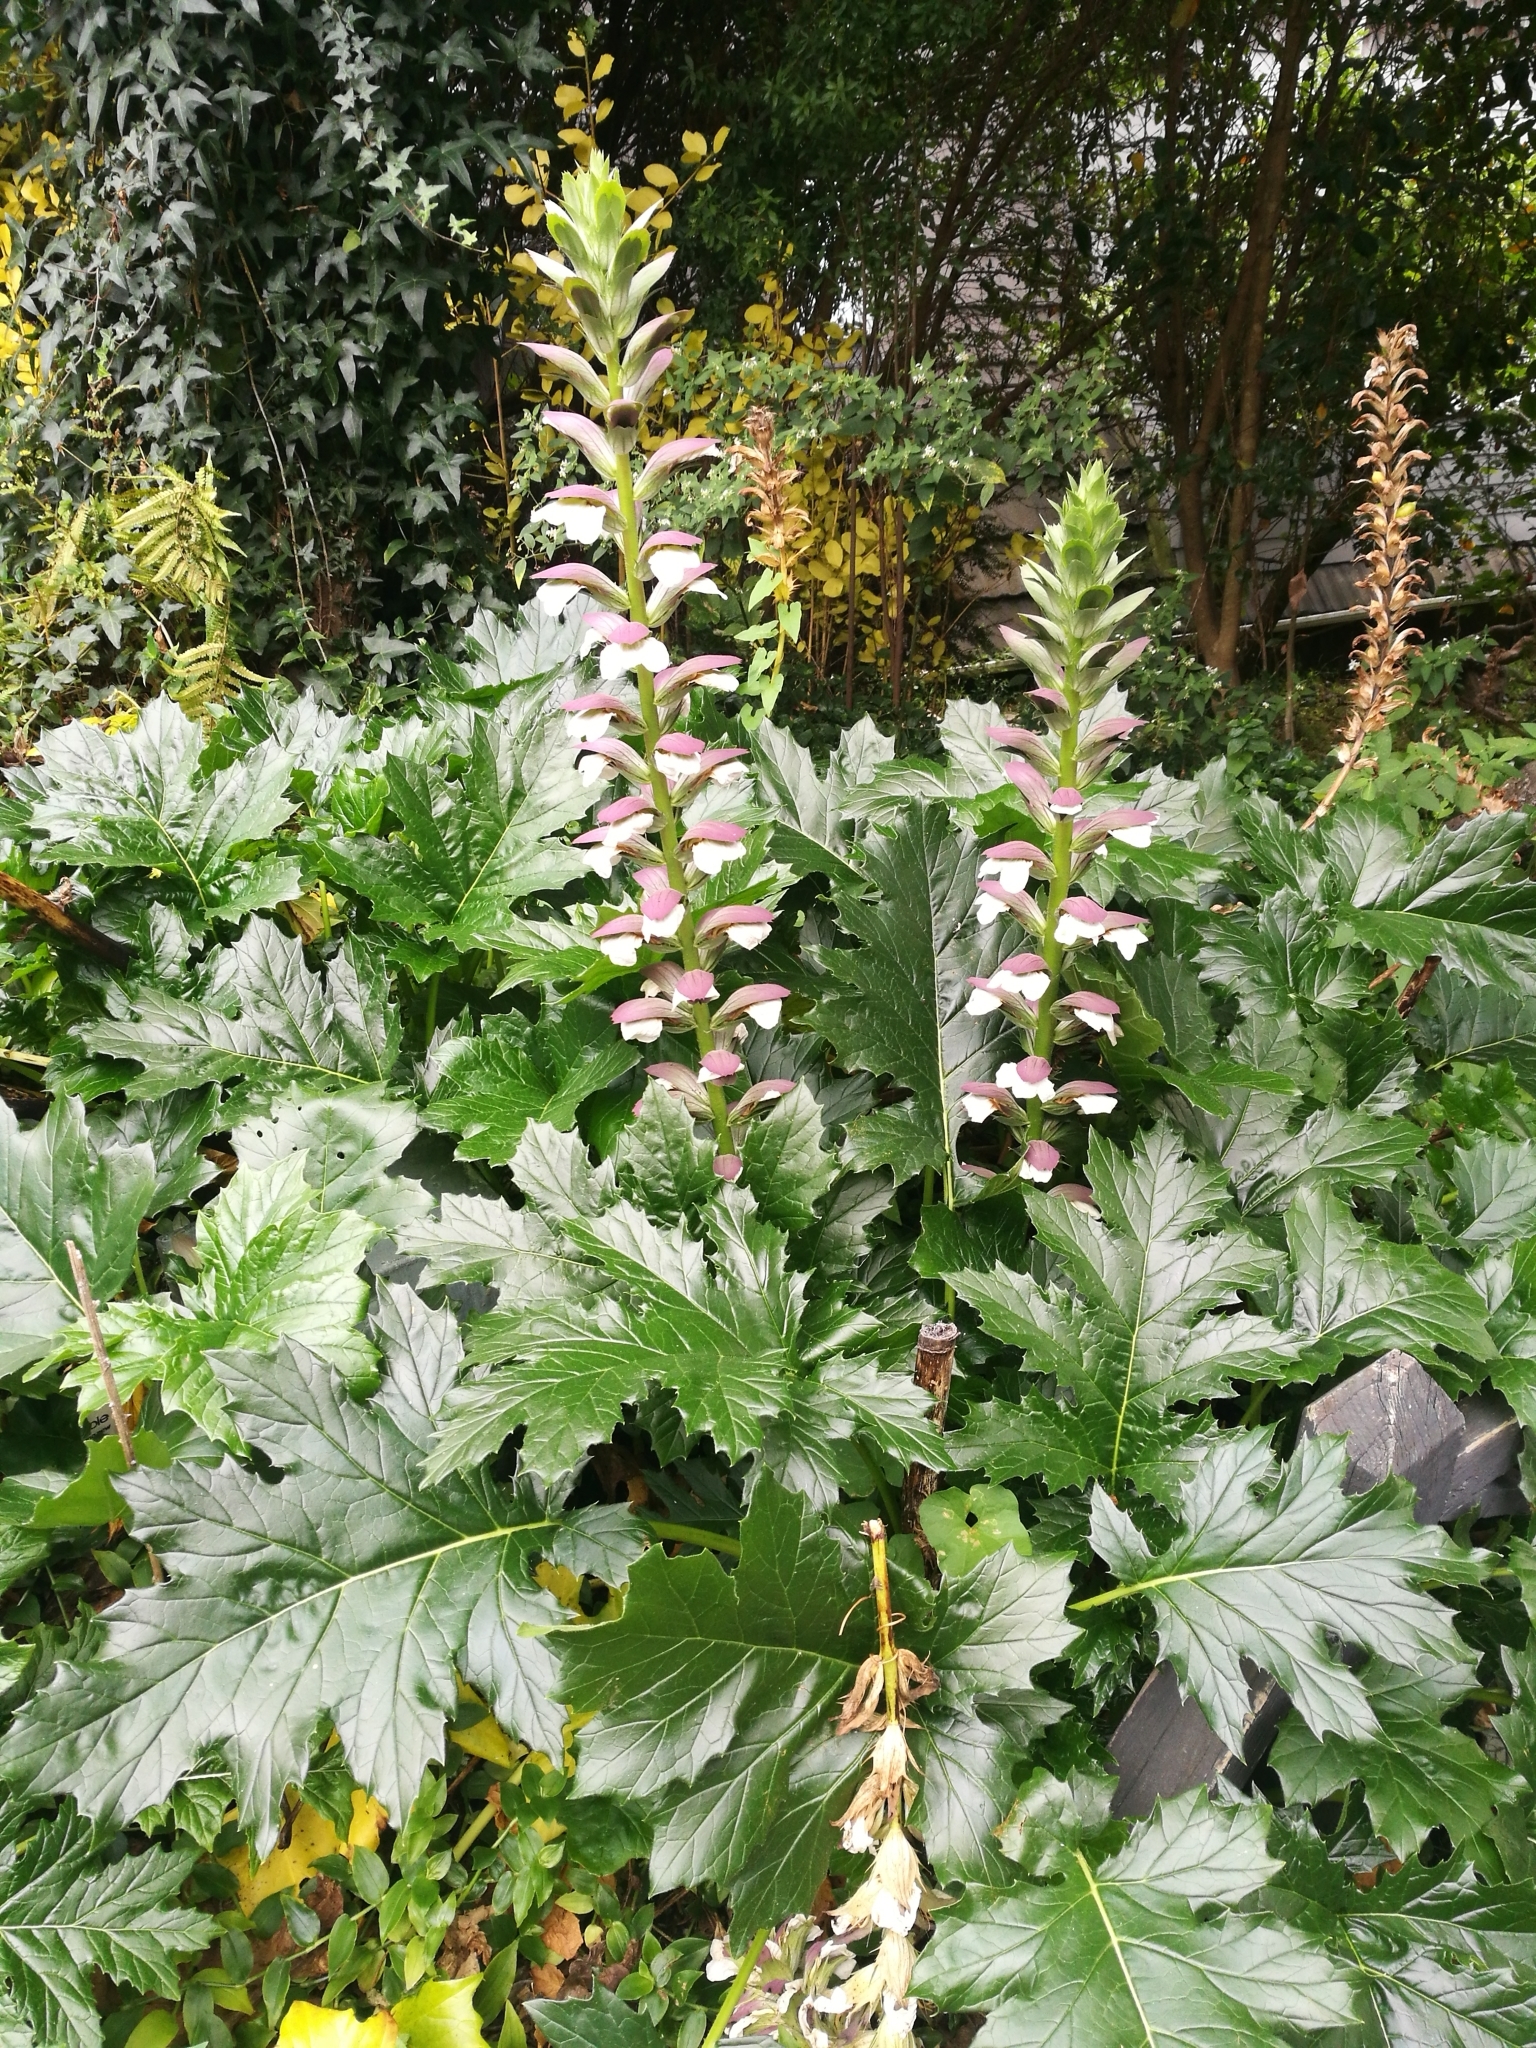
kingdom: Plantae
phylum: Tracheophyta
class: Magnoliopsida
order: Lamiales
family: Acanthaceae
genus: Acanthus
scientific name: Acanthus mollis
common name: Bear's-breech
